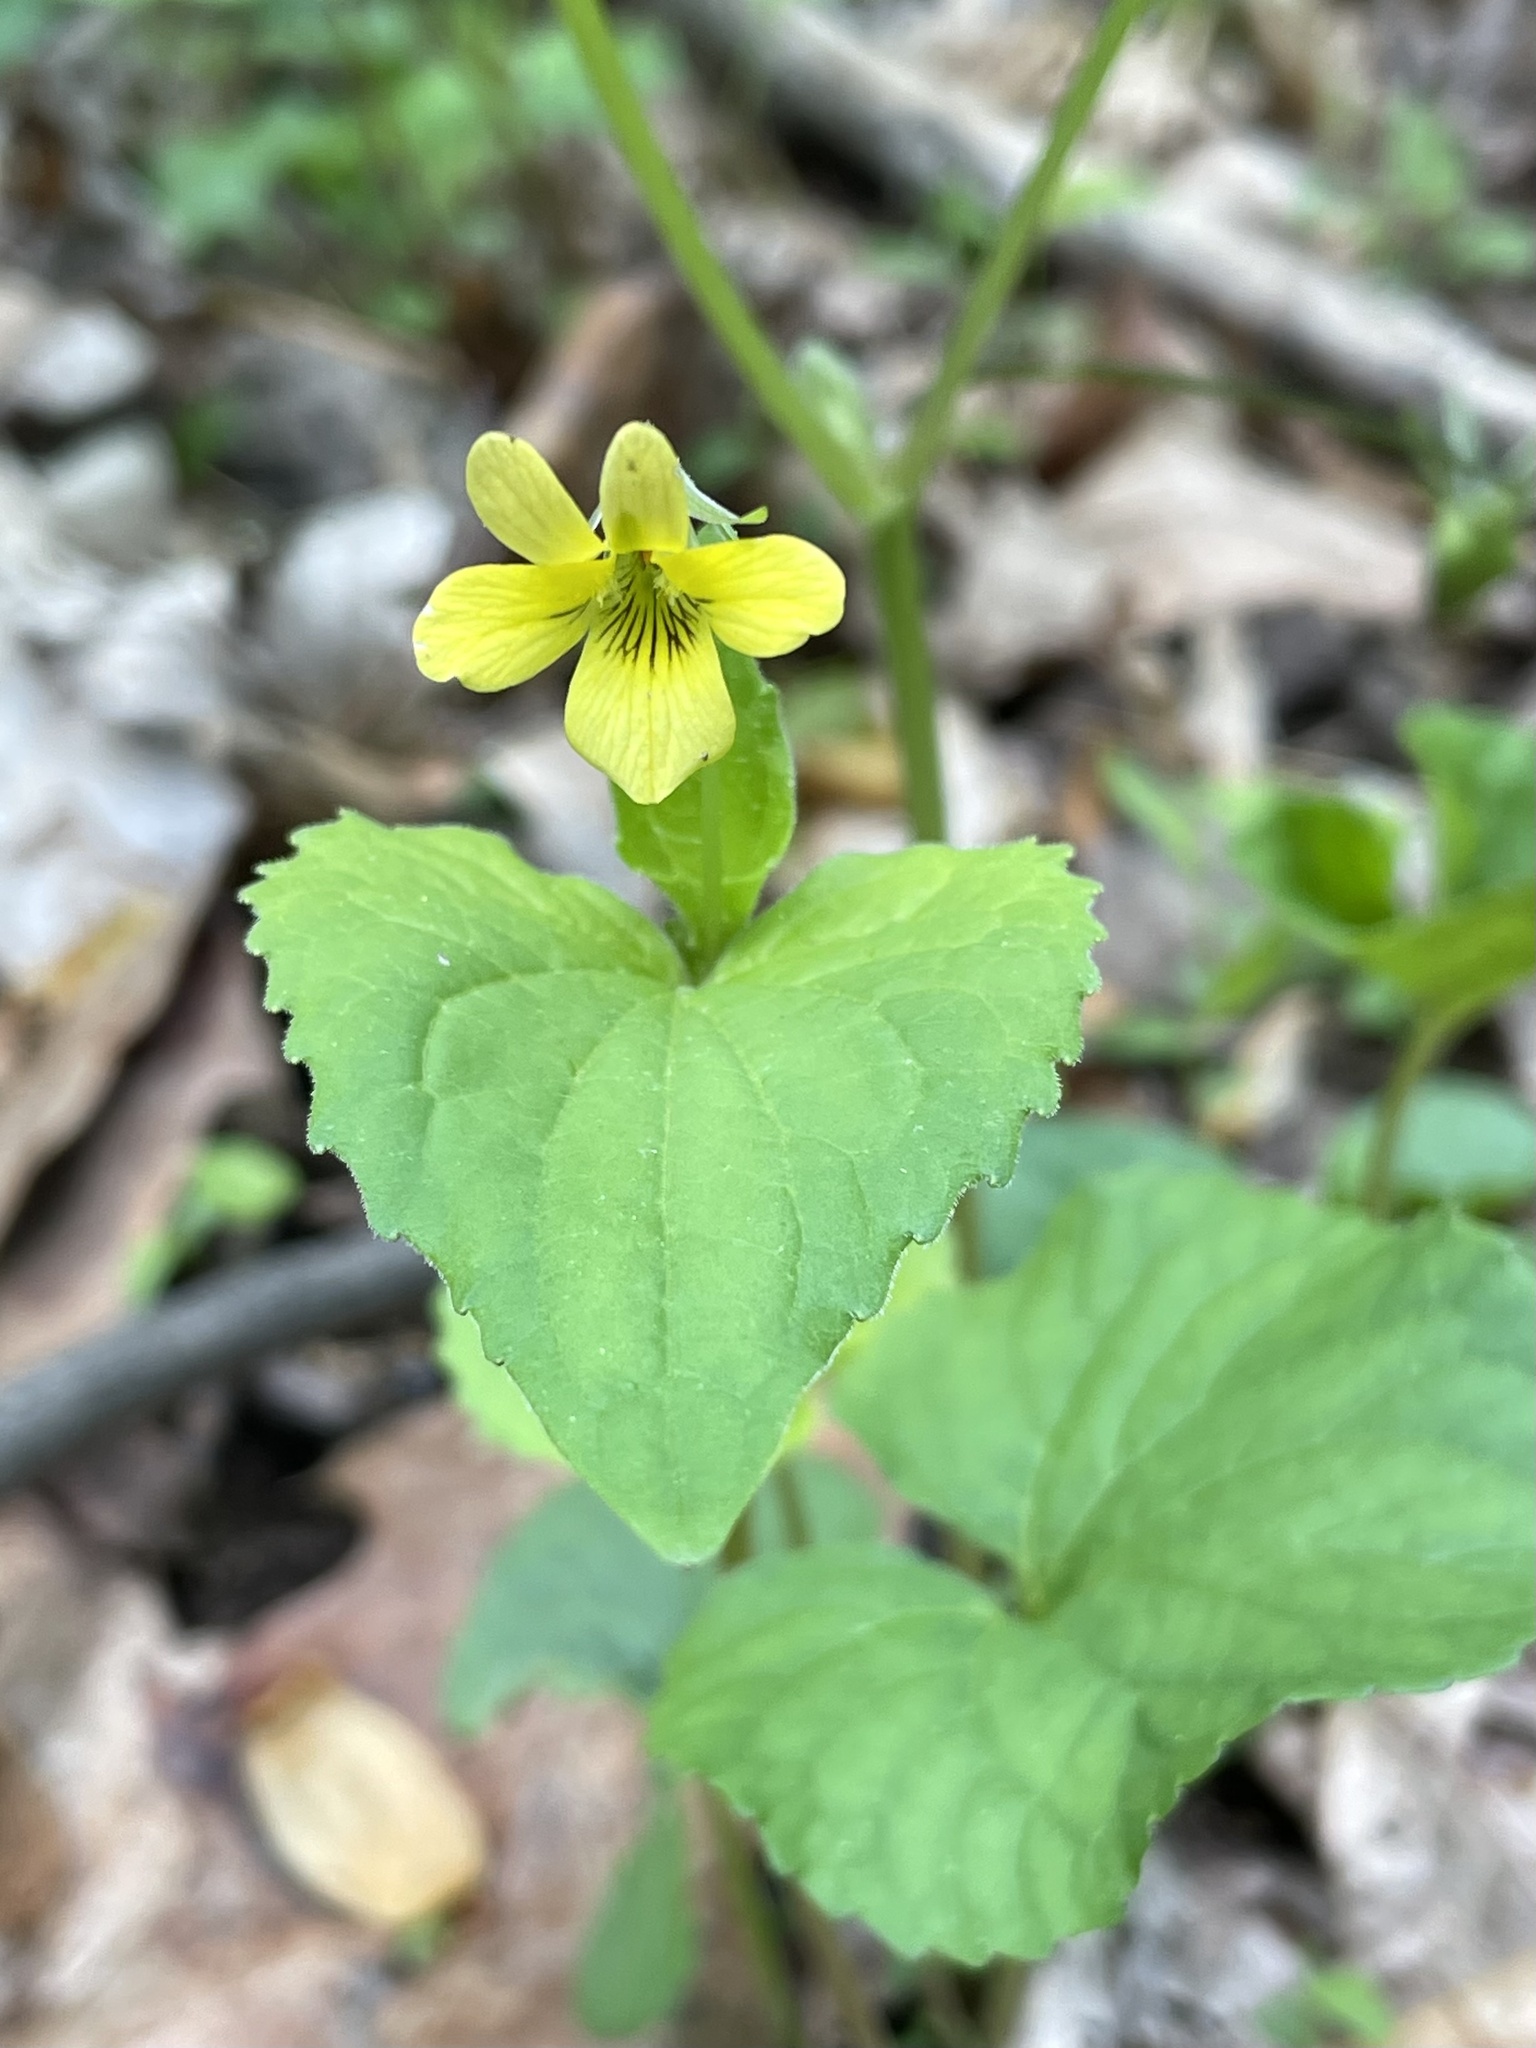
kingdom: Plantae
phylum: Tracheophyta
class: Magnoliopsida
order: Malpighiales
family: Violaceae
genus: Viola
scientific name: Viola eriocarpa
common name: Smooth yellow violet
